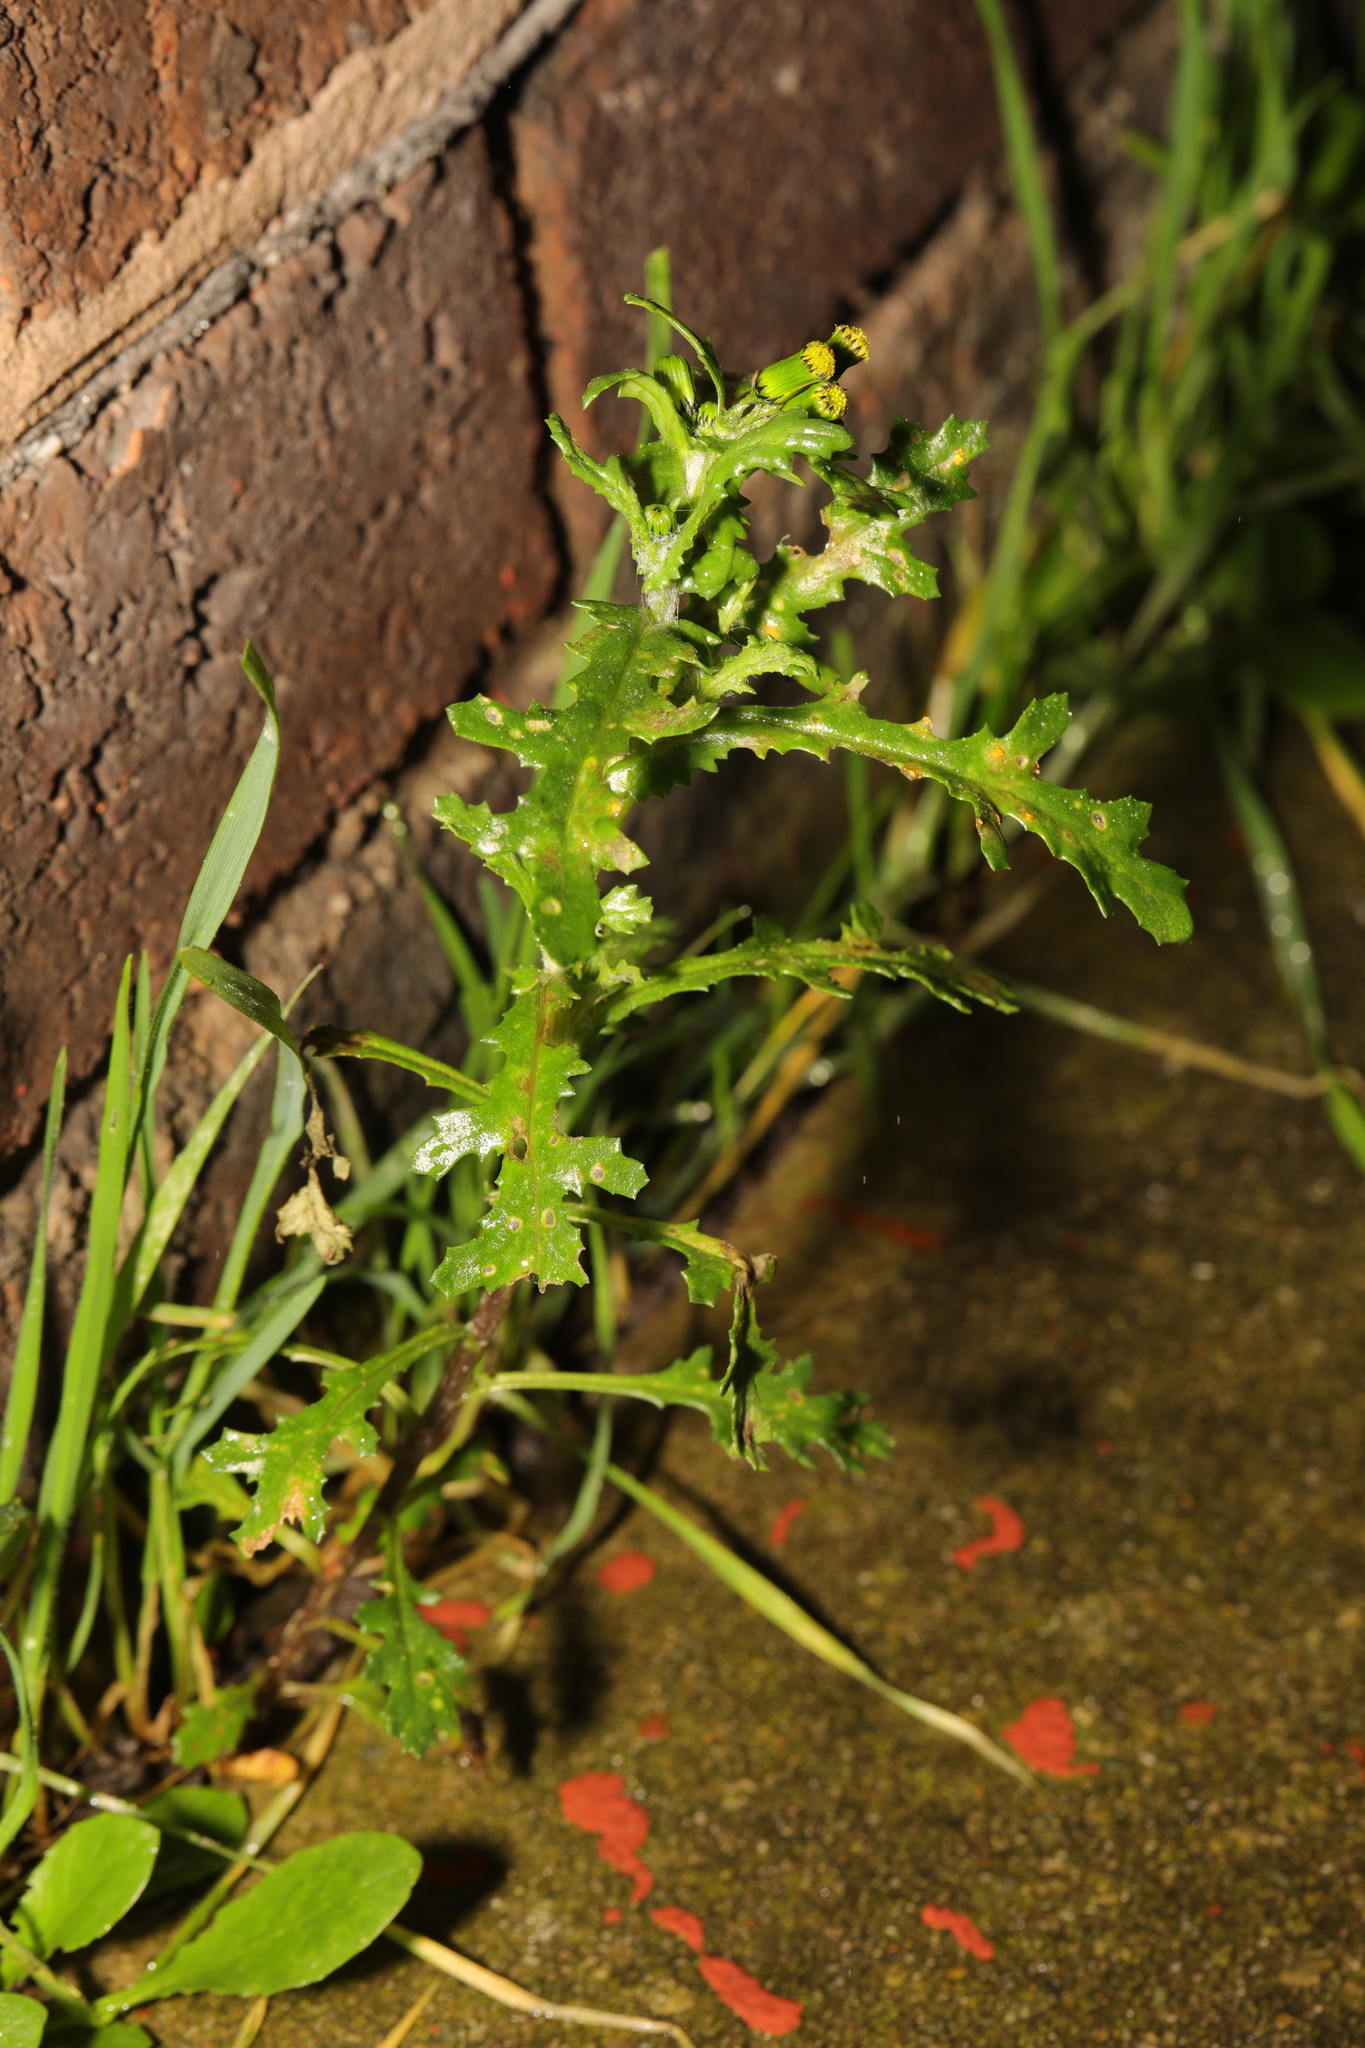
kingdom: Plantae
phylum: Tracheophyta
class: Magnoliopsida
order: Asterales
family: Asteraceae
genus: Senecio
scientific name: Senecio vulgaris
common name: Old-man-in-the-spring
